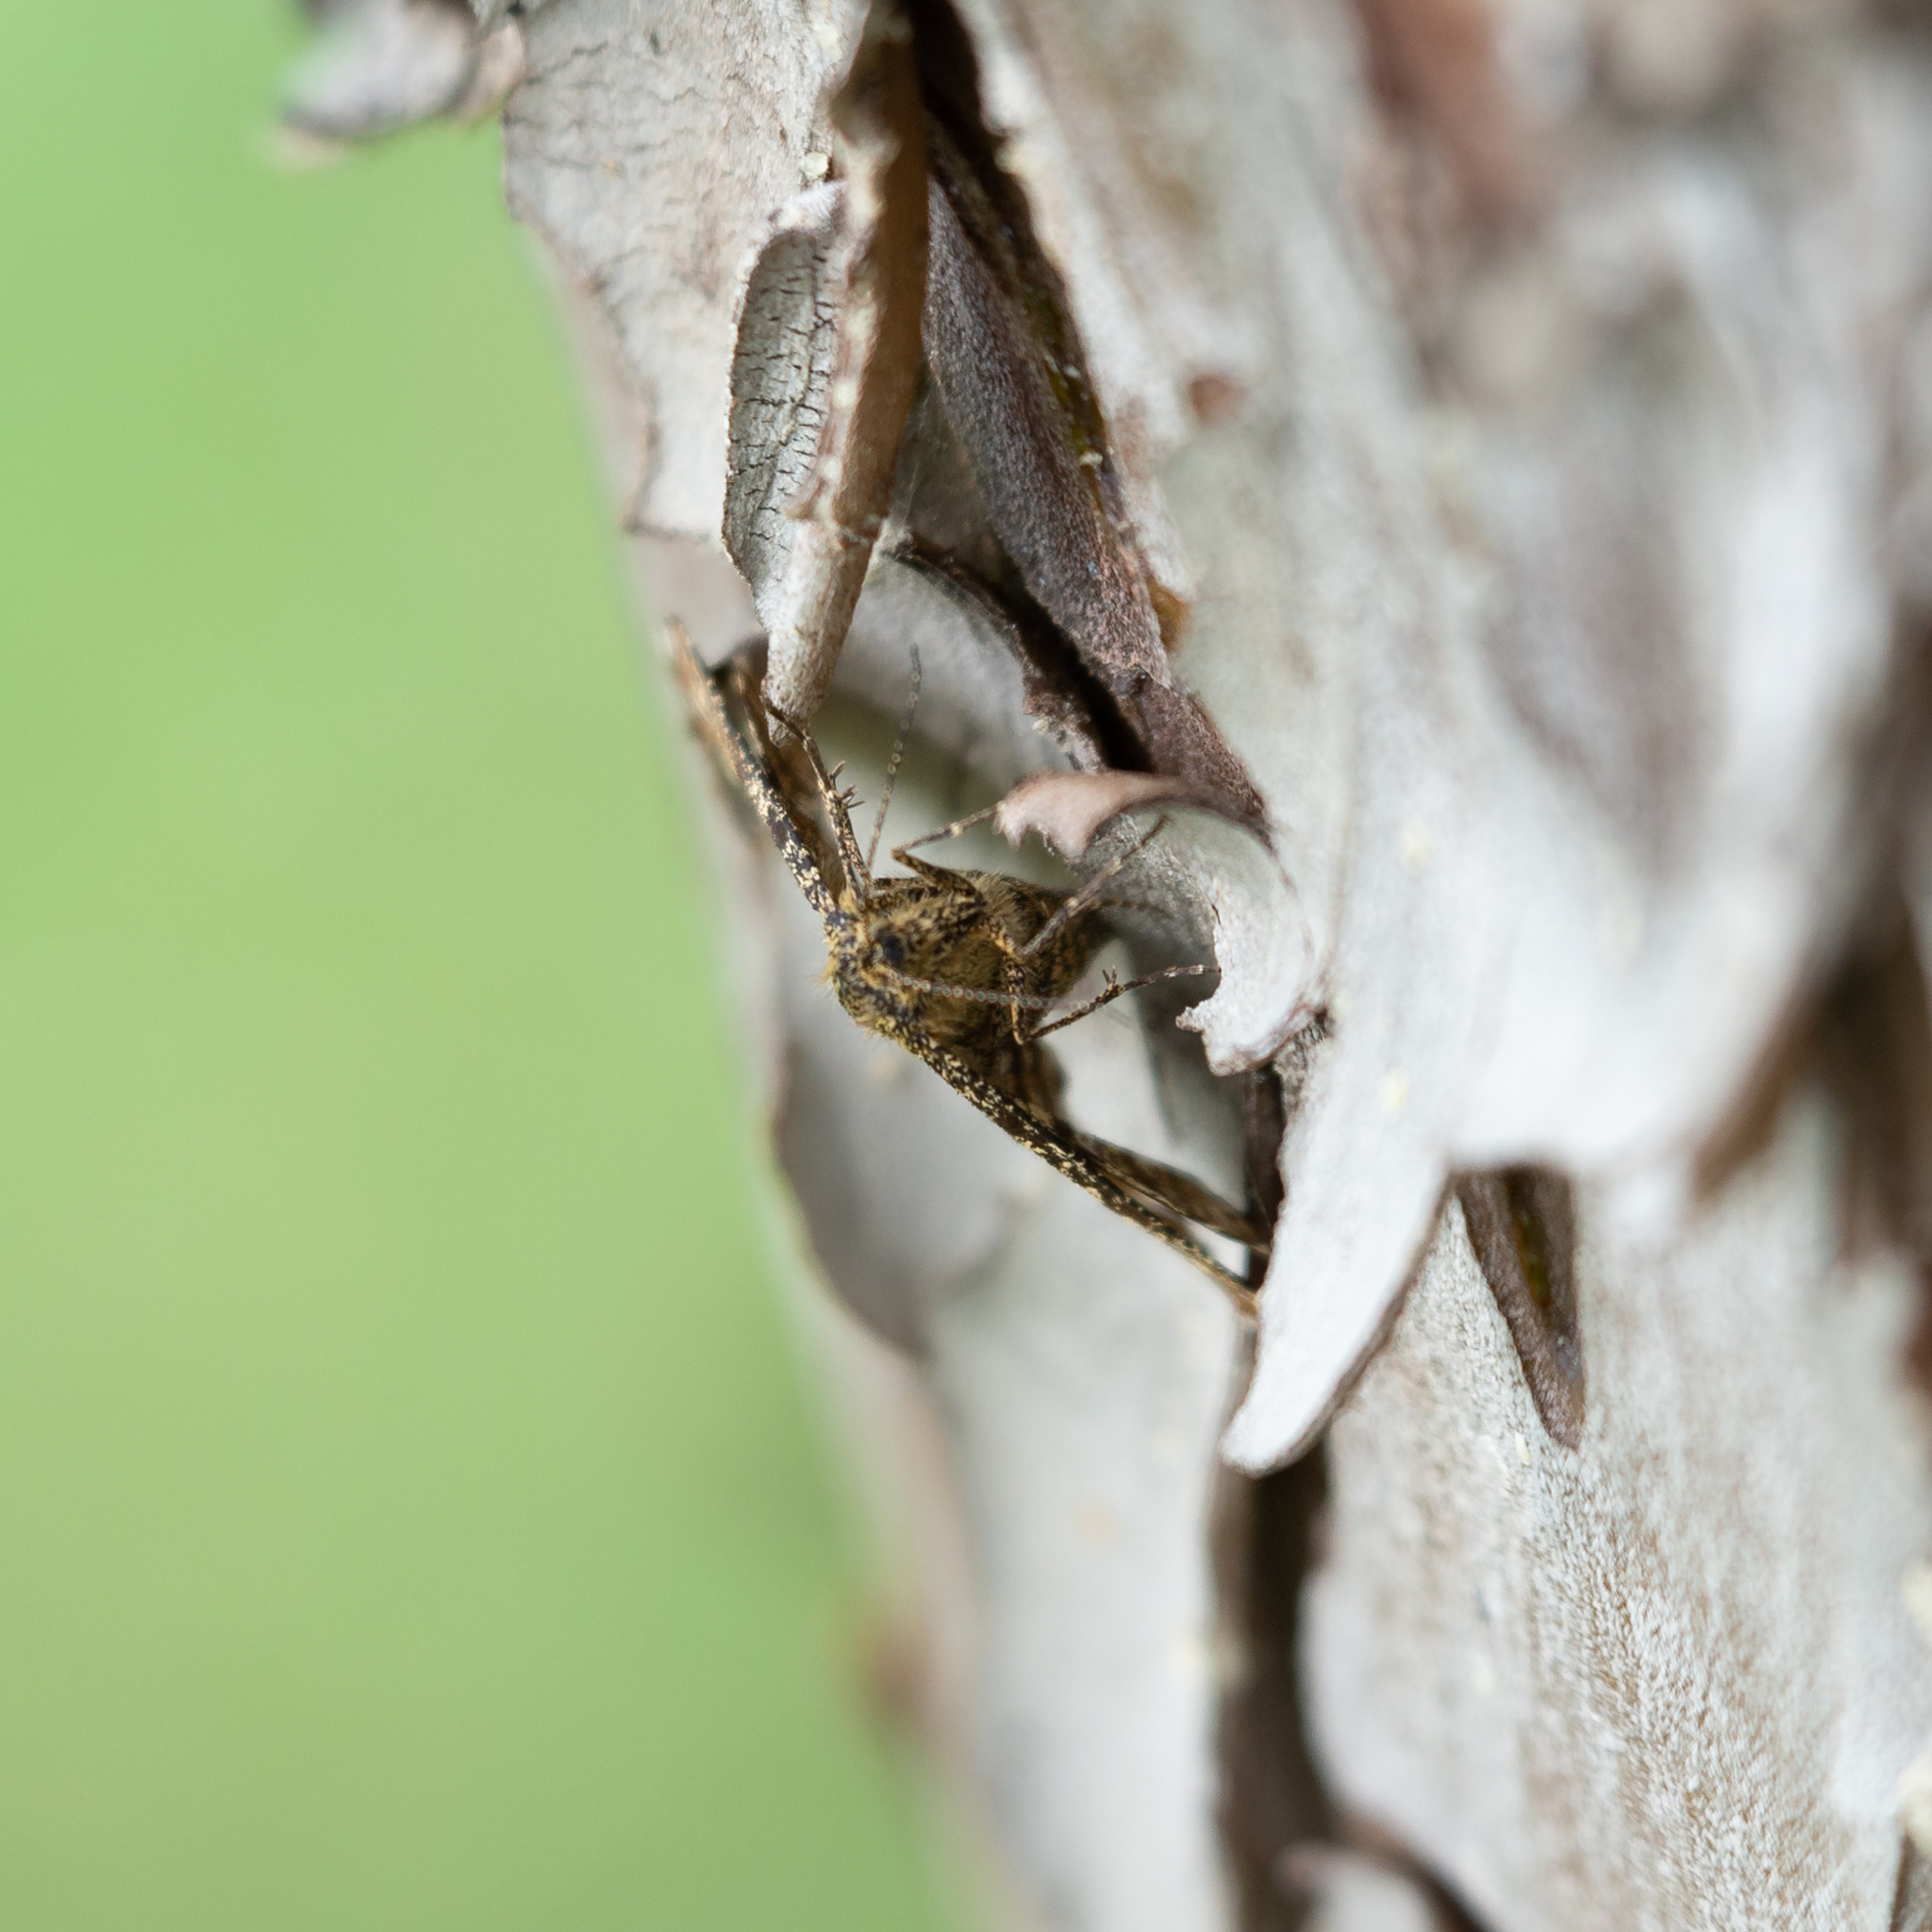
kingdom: Animalia
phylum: Arthropoda
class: Insecta
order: Lepidoptera
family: Geometridae
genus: Ematurga
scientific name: Ematurga atomaria
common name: Common heath
